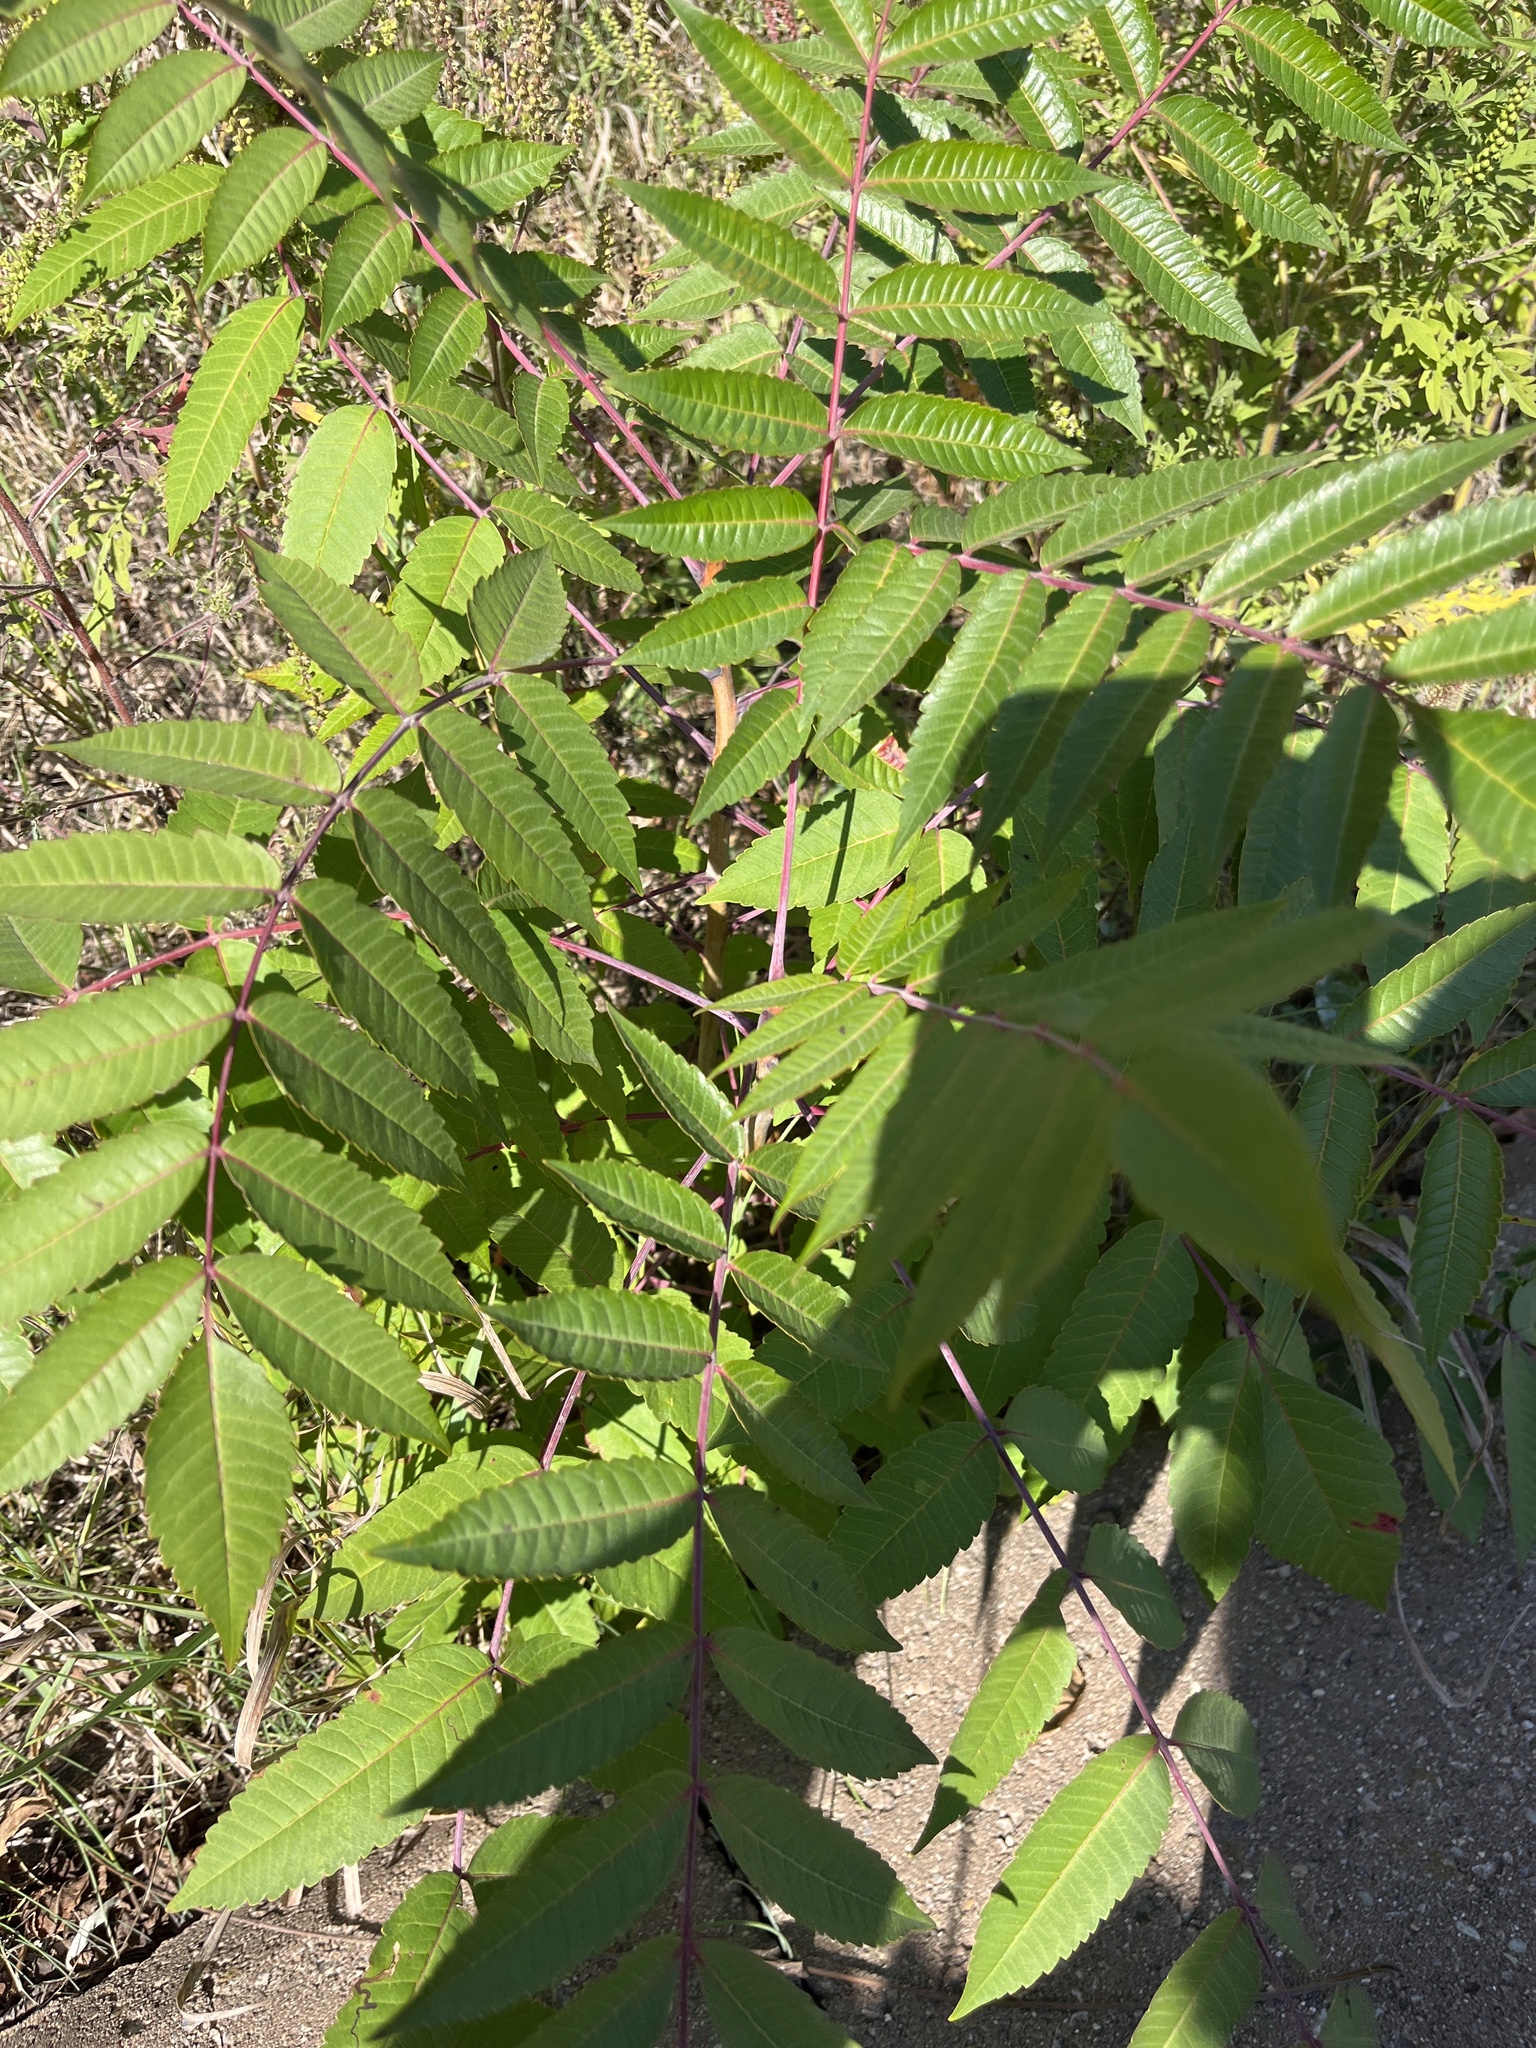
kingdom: Plantae
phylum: Tracheophyta
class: Magnoliopsida
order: Sapindales
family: Anacardiaceae
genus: Rhus
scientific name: Rhus glabra
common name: Scarlet sumac
